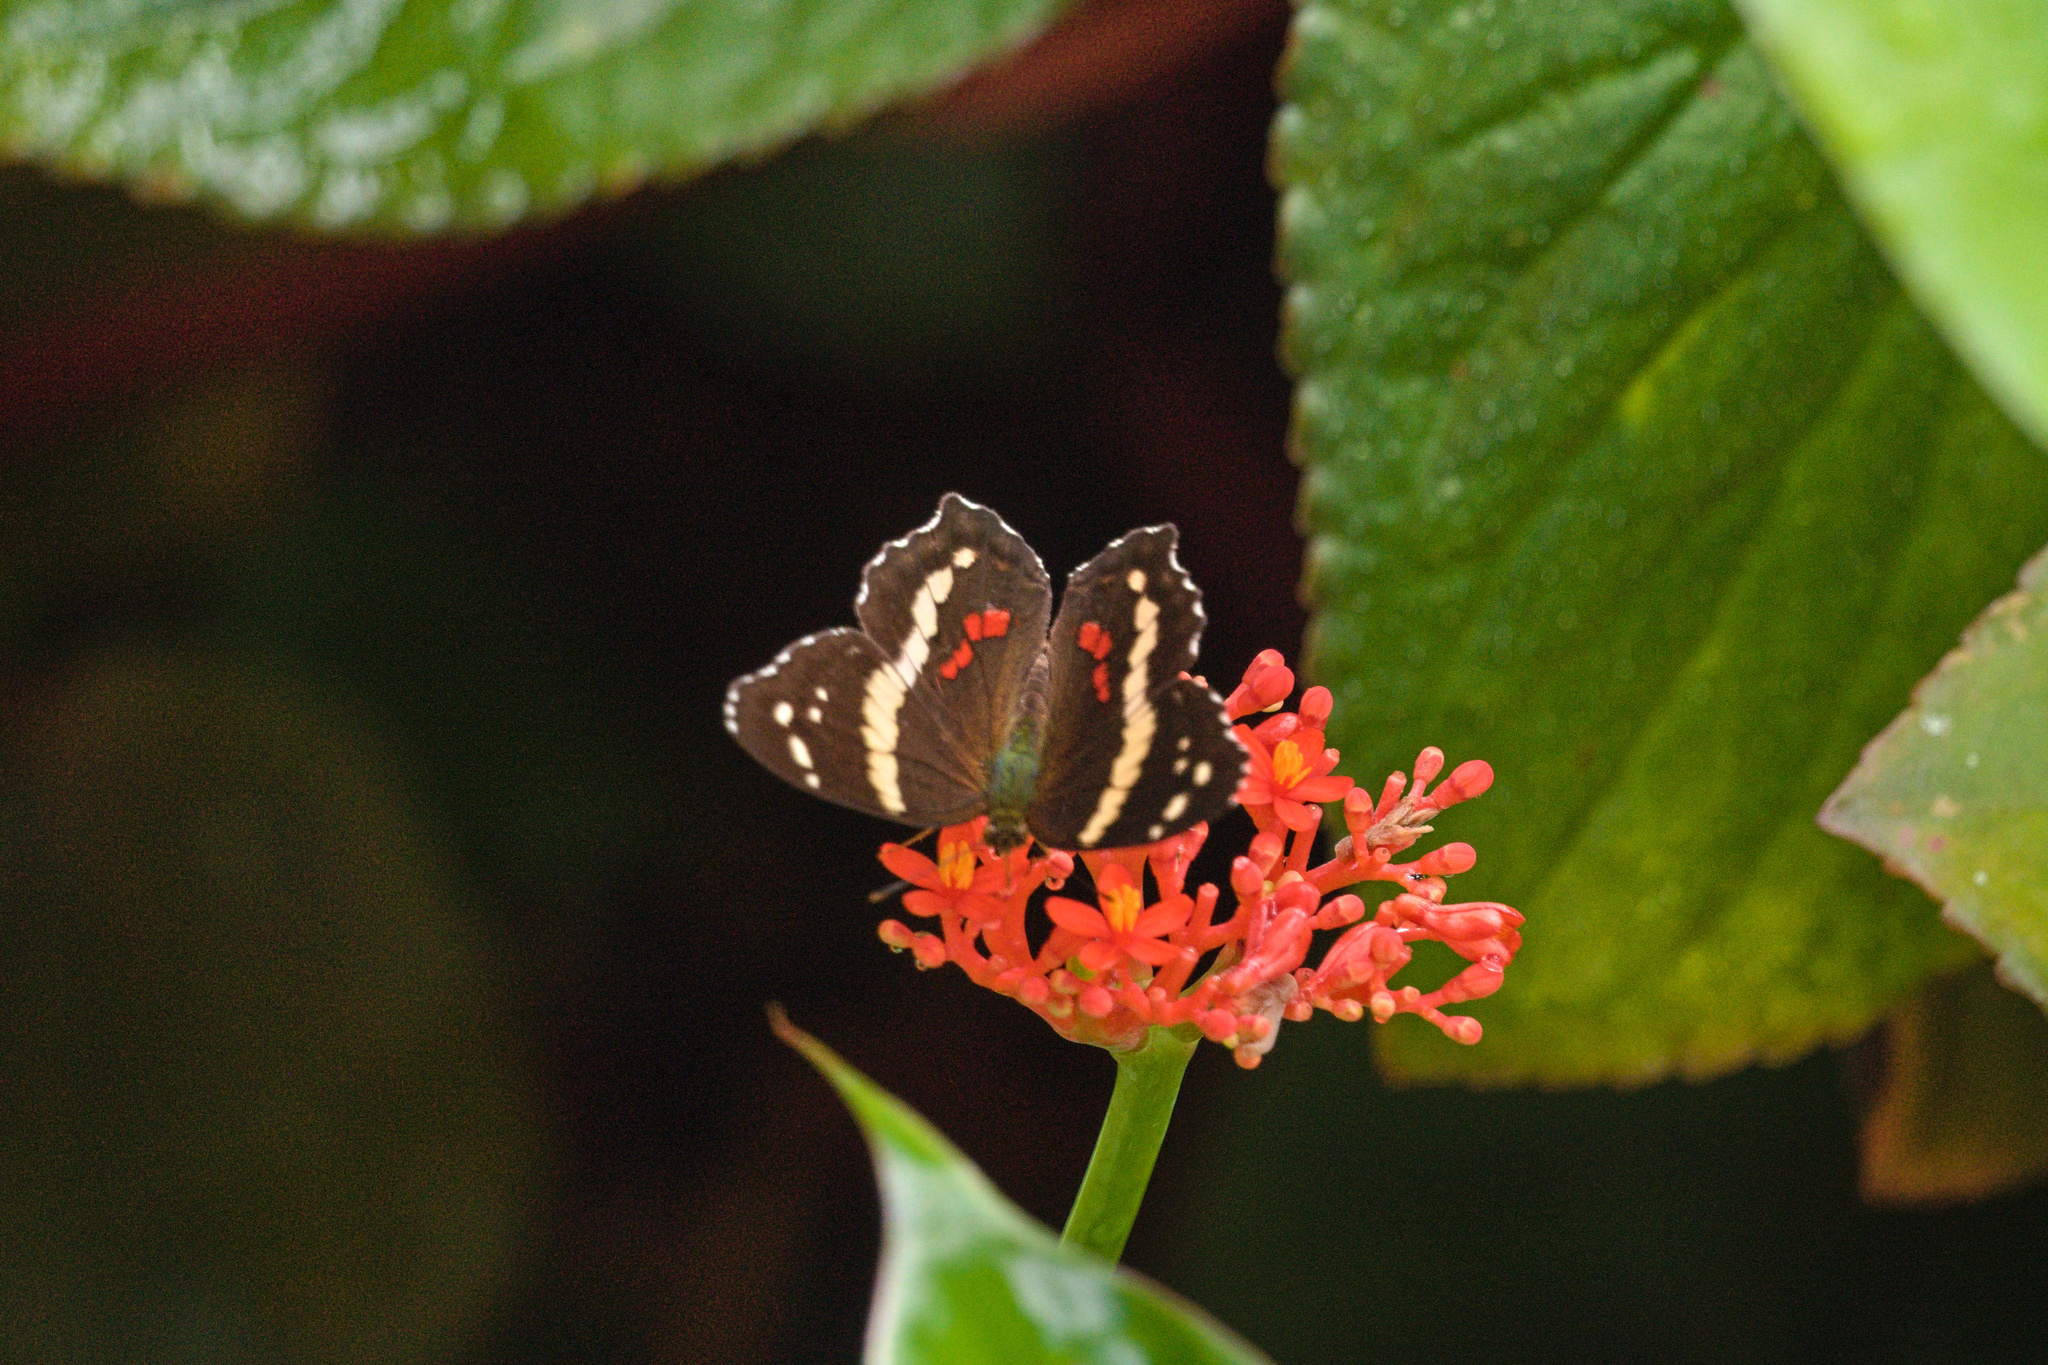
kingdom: Animalia
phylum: Arthropoda
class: Insecta
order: Lepidoptera
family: Nymphalidae
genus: Anartia
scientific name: Anartia fatima
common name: Banded peacock
